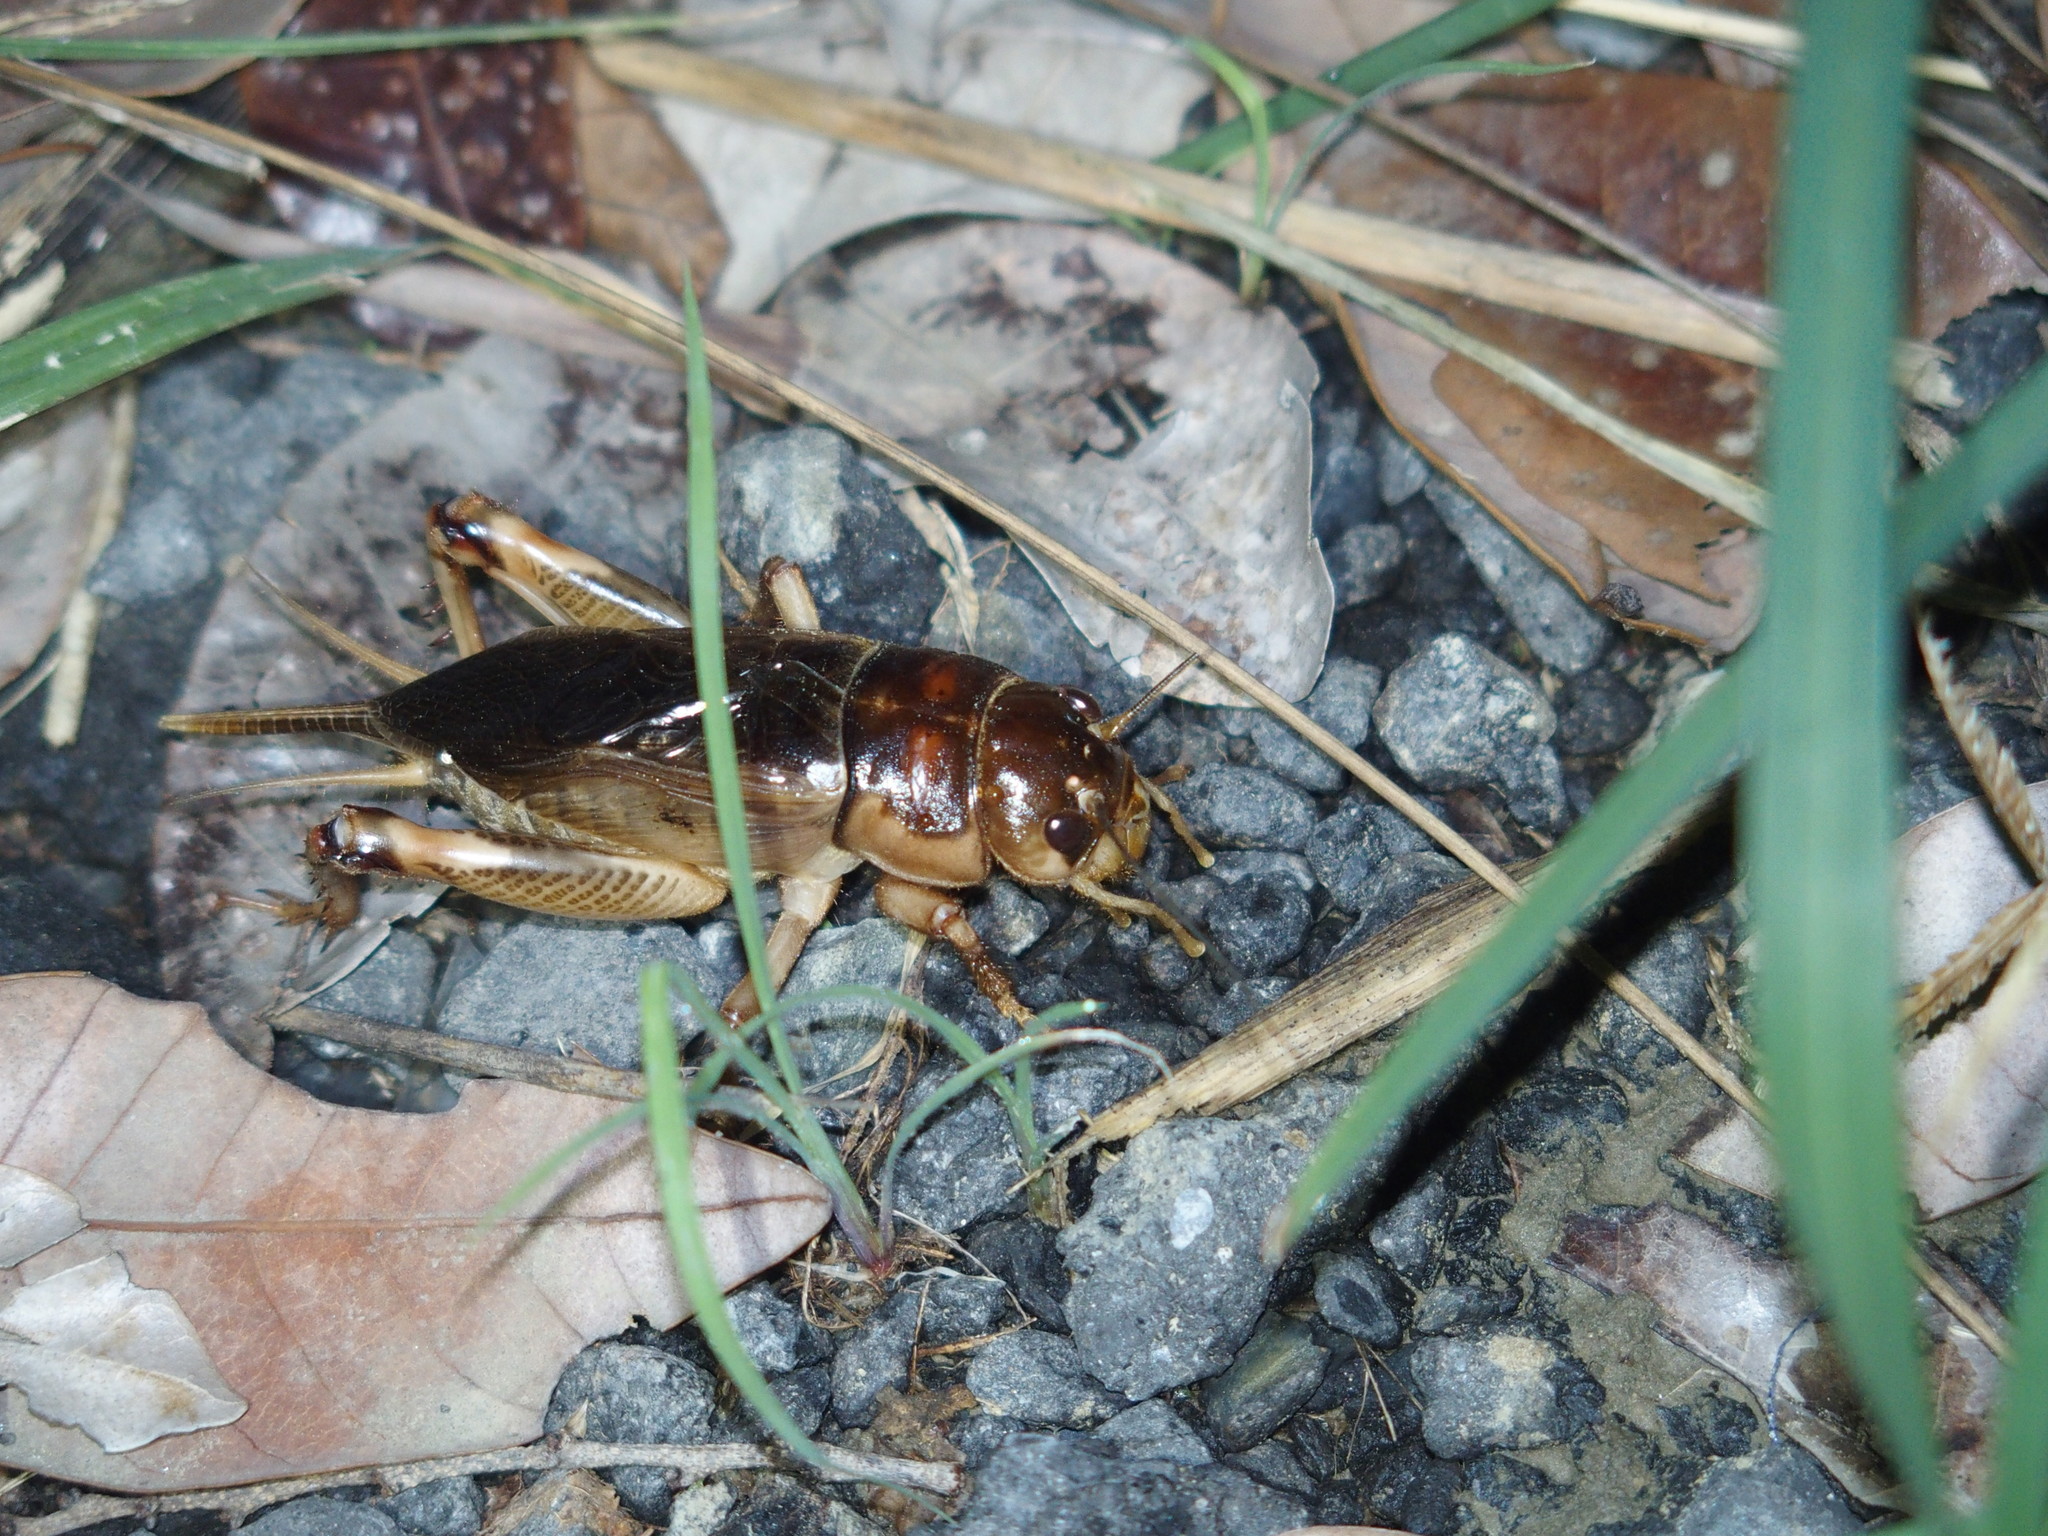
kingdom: Animalia
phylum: Arthropoda
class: Insecta
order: Orthoptera
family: Gryllidae
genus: Tarbinskiellus
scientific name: Tarbinskiellus portentosus
